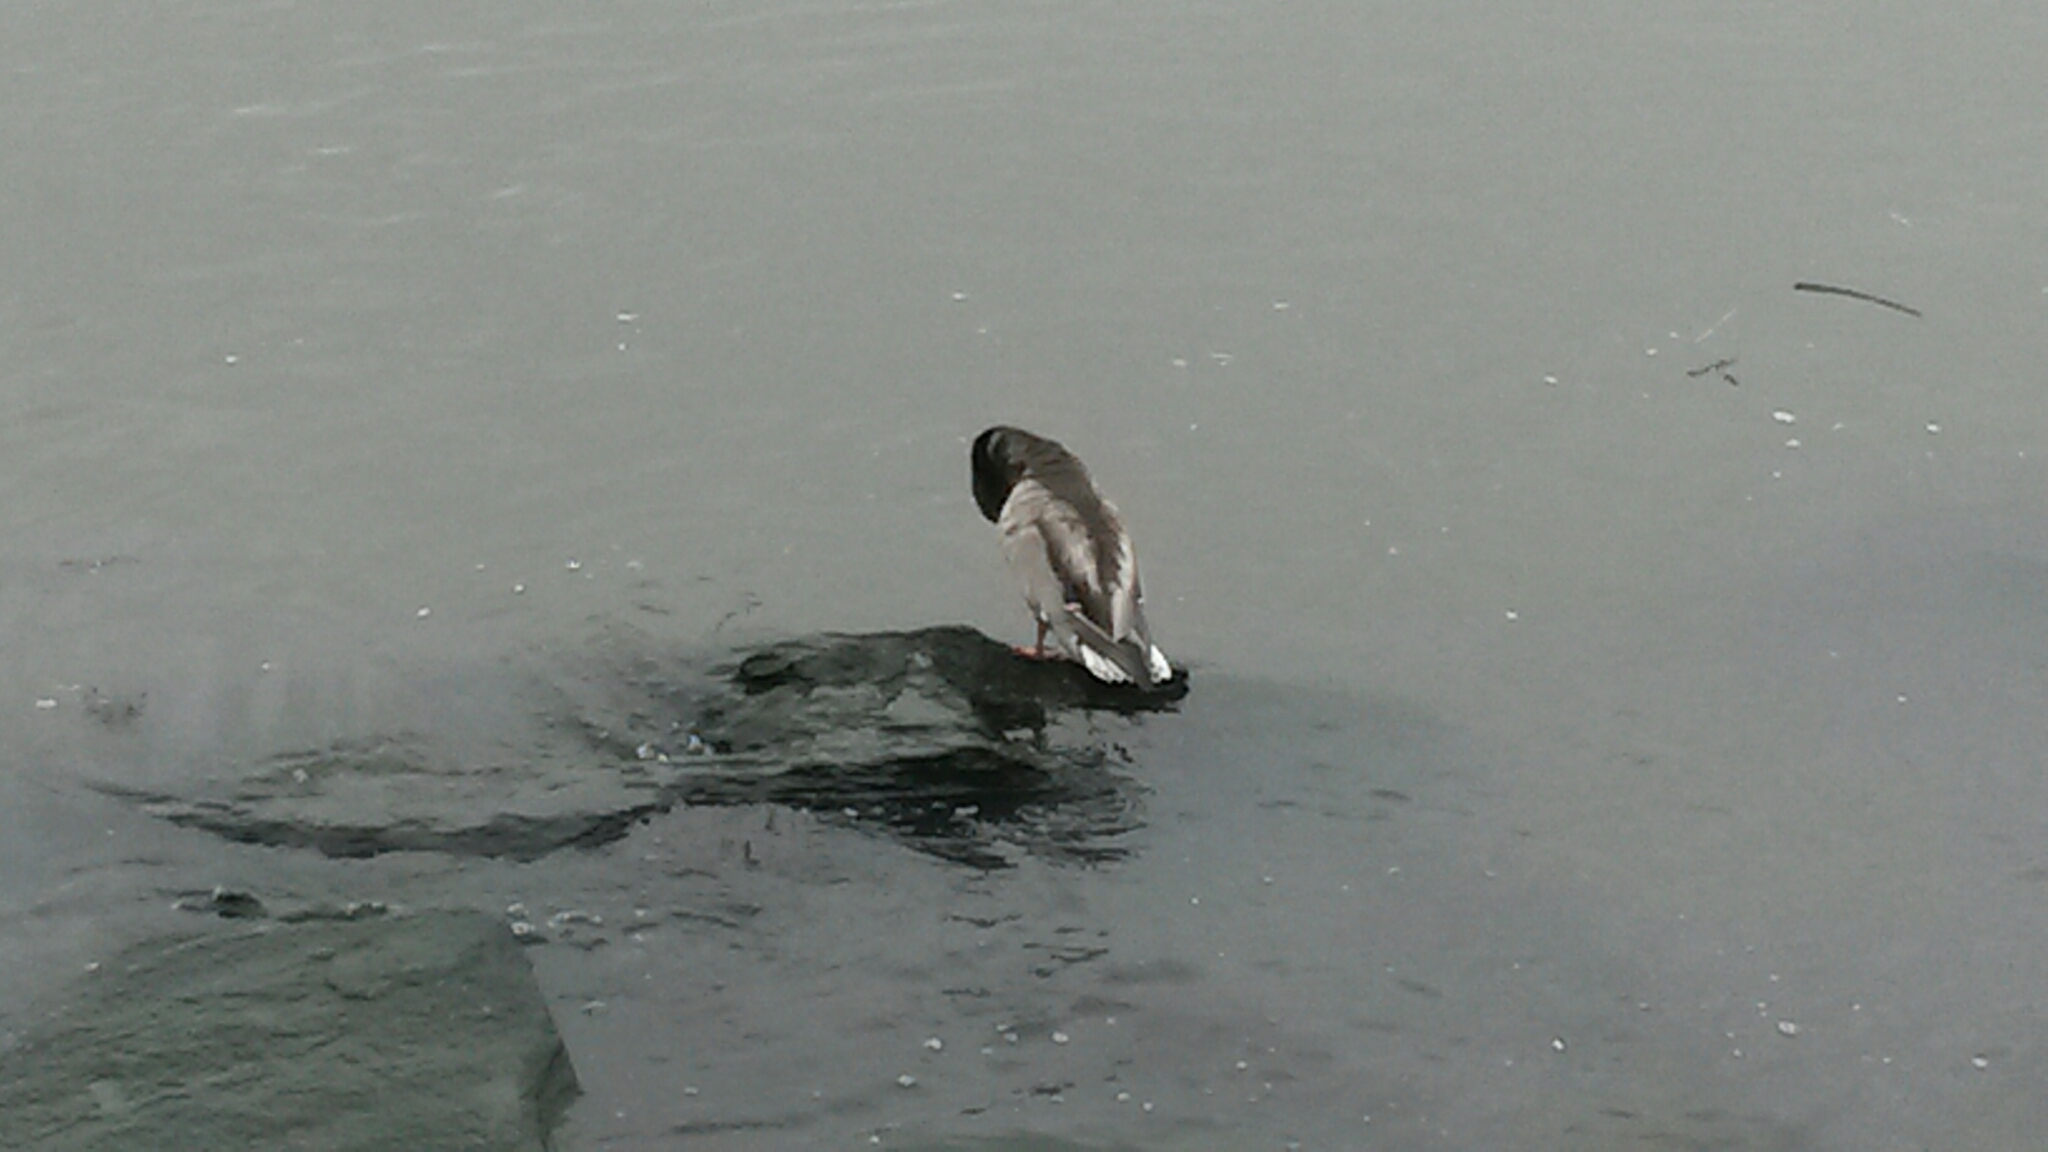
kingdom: Animalia
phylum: Chordata
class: Aves
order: Anseriformes
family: Anatidae
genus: Anas
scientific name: Anas platyrhynchos
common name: Mallard
